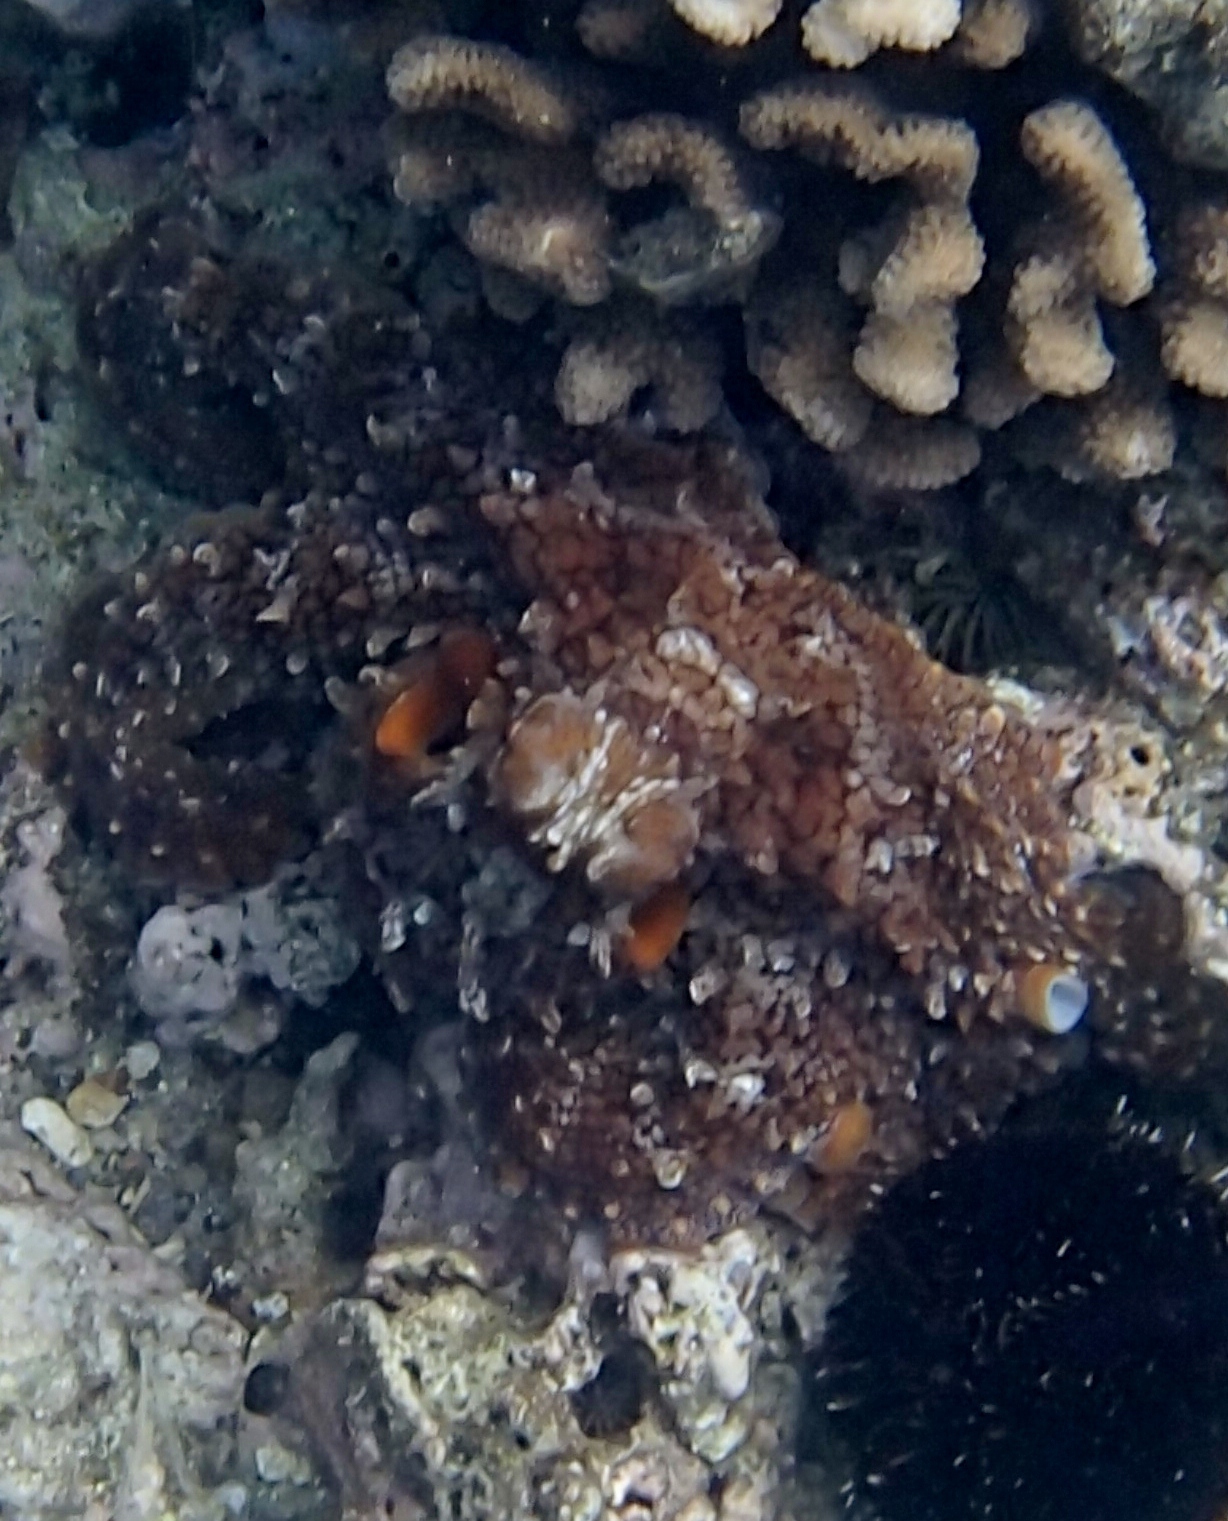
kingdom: Animalia
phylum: Mollusca
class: Cephalopoda
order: Octopoda
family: Octopodidae
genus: Octopus
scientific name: Octopus cyanea
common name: Cyane's octopus
